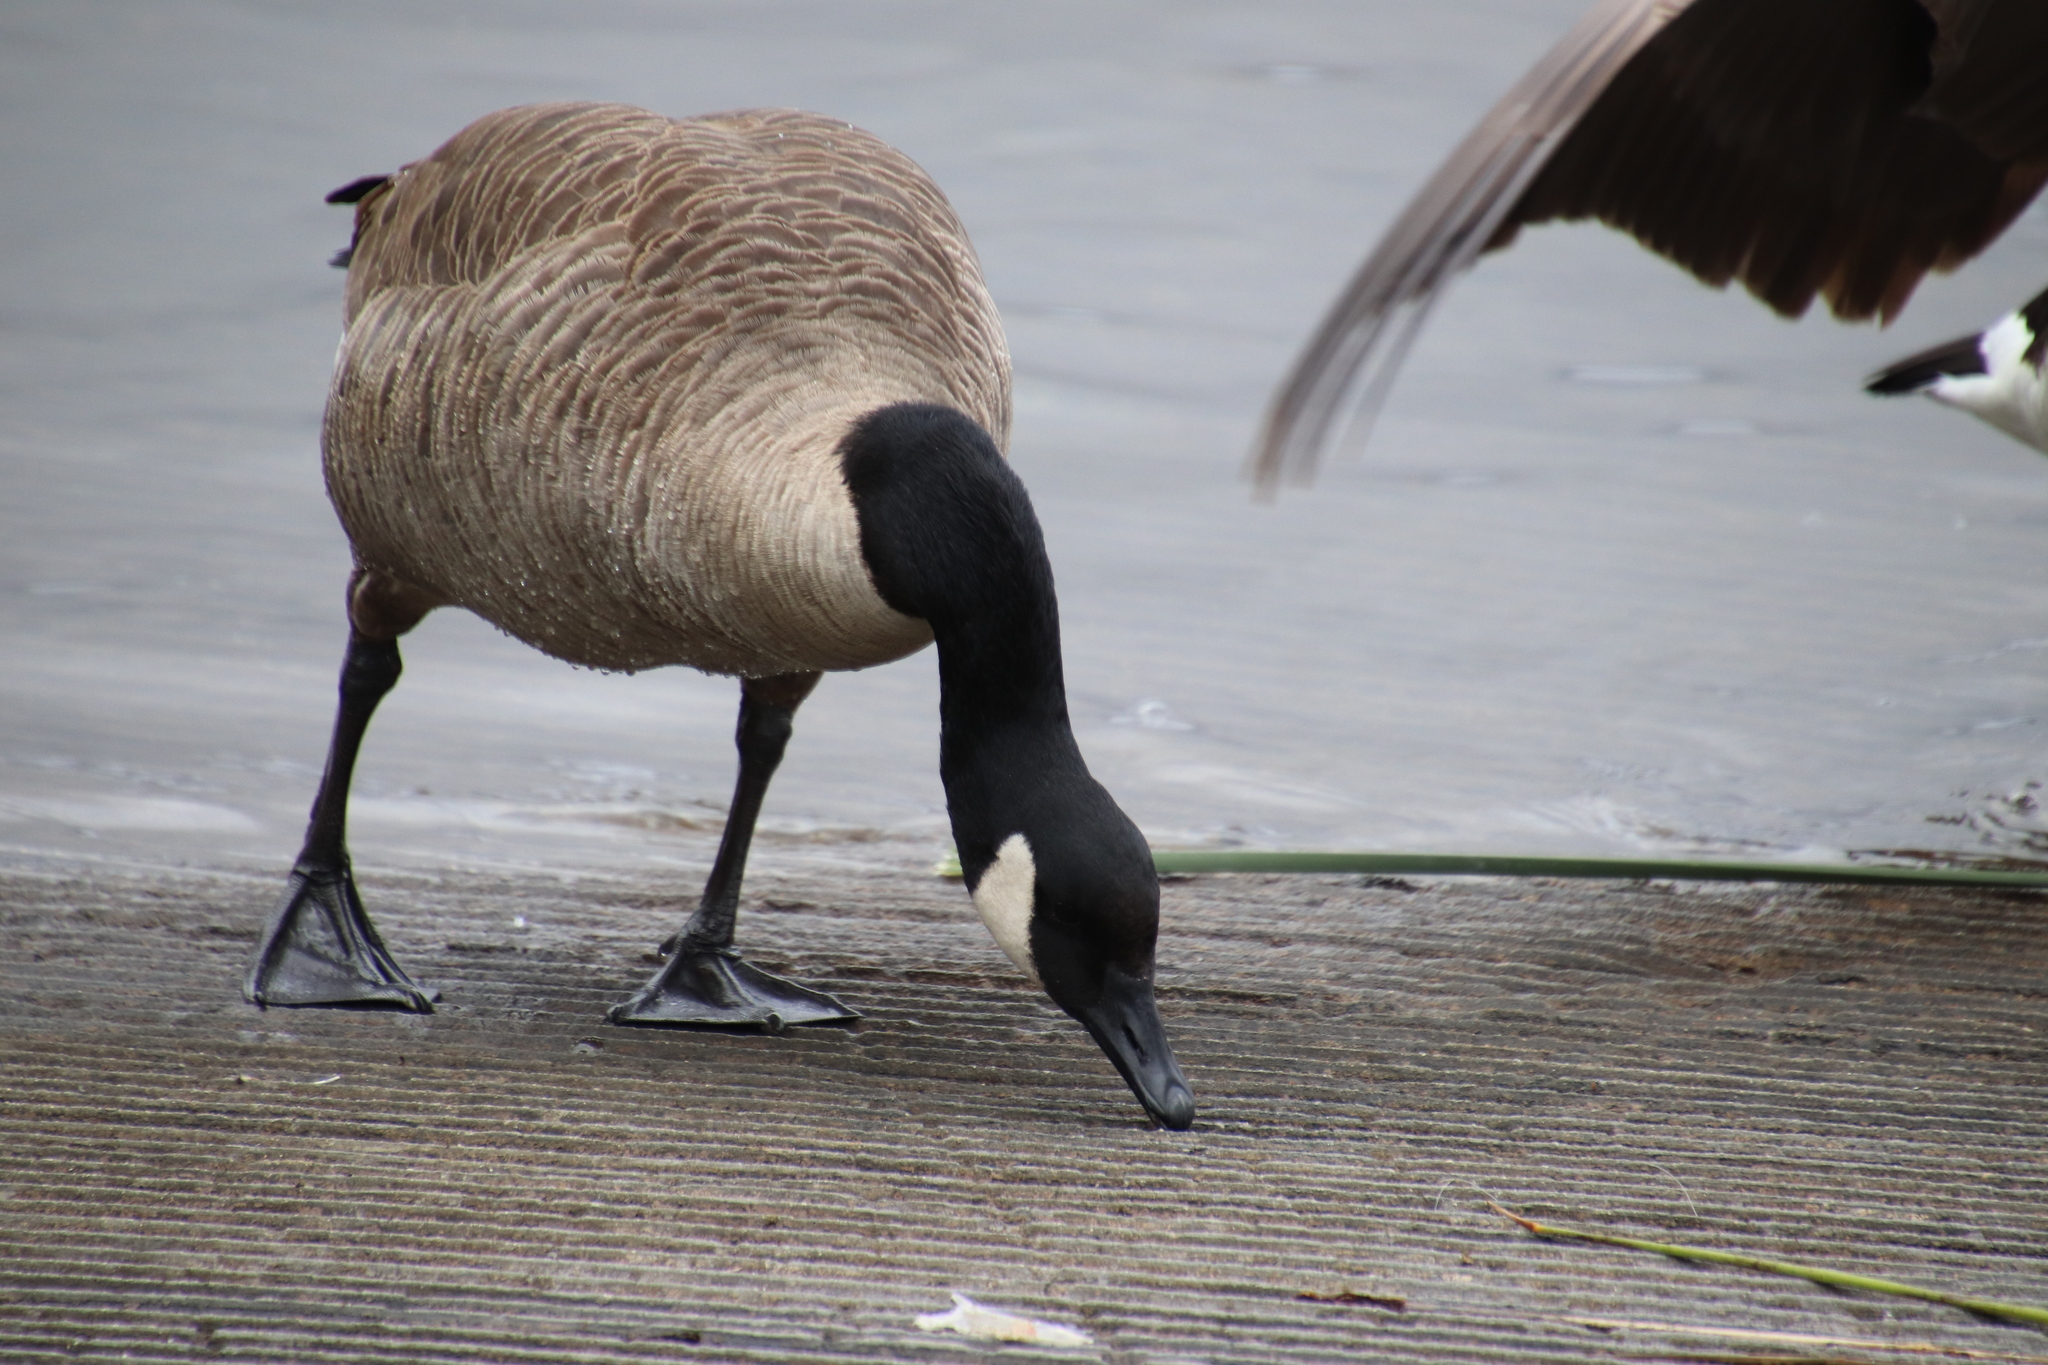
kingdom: Animalia
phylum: Chordata
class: Aves
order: Anseriformes
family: Anatidae
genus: Branta
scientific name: Branta canadensis
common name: Canada goose
